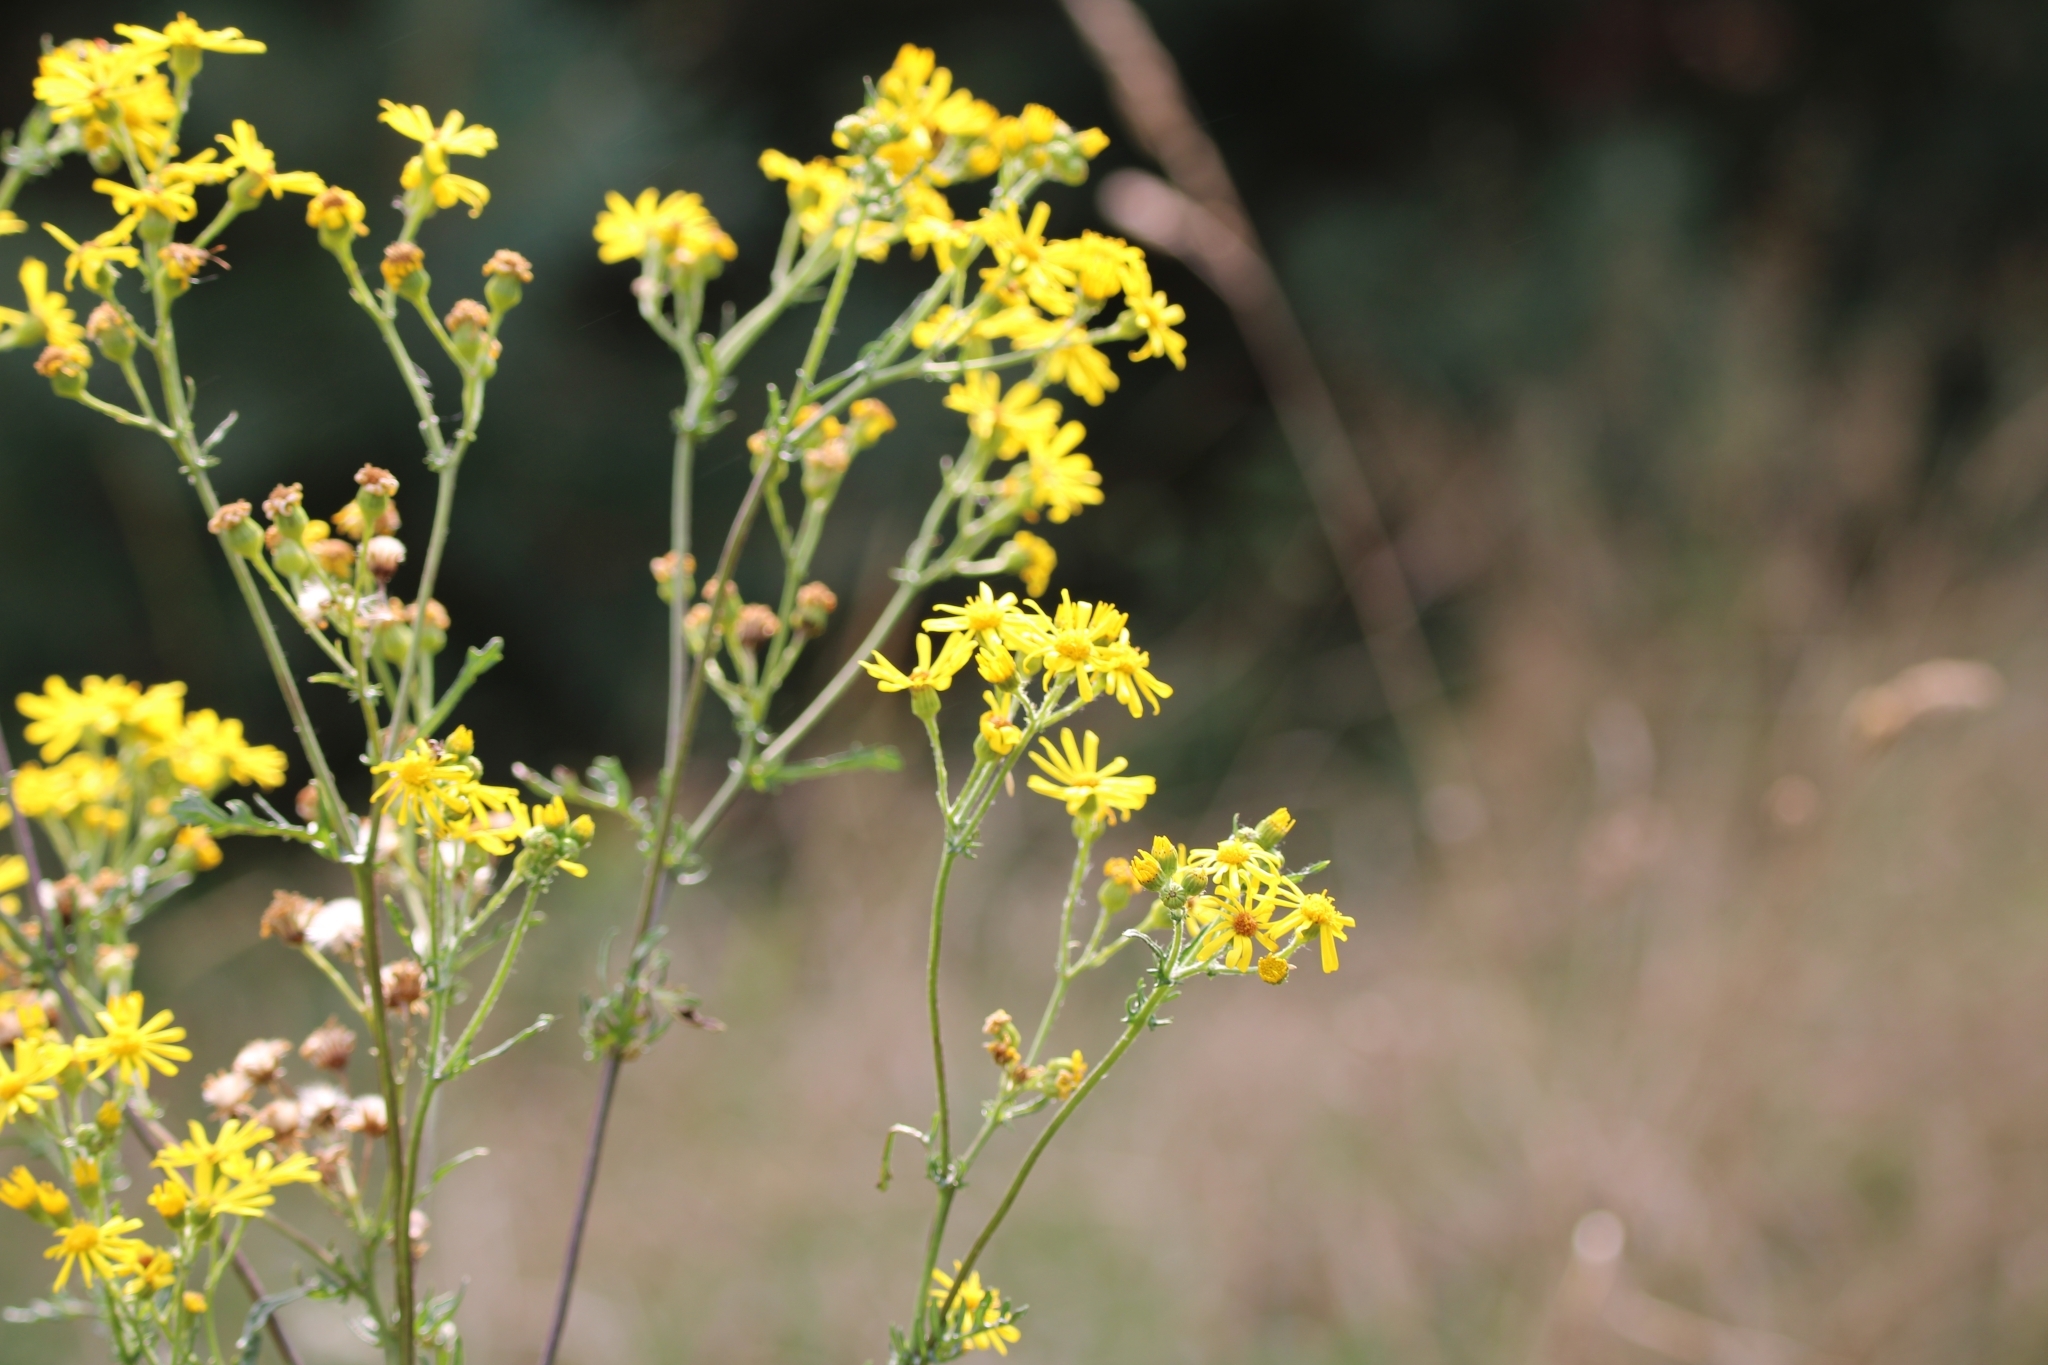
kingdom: Plantae
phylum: Tracheophyta
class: Magnoliopsida
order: Asterales
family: Asteraceae
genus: Jacobaea
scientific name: Jacobaea vulgaris
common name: Stinking willie
